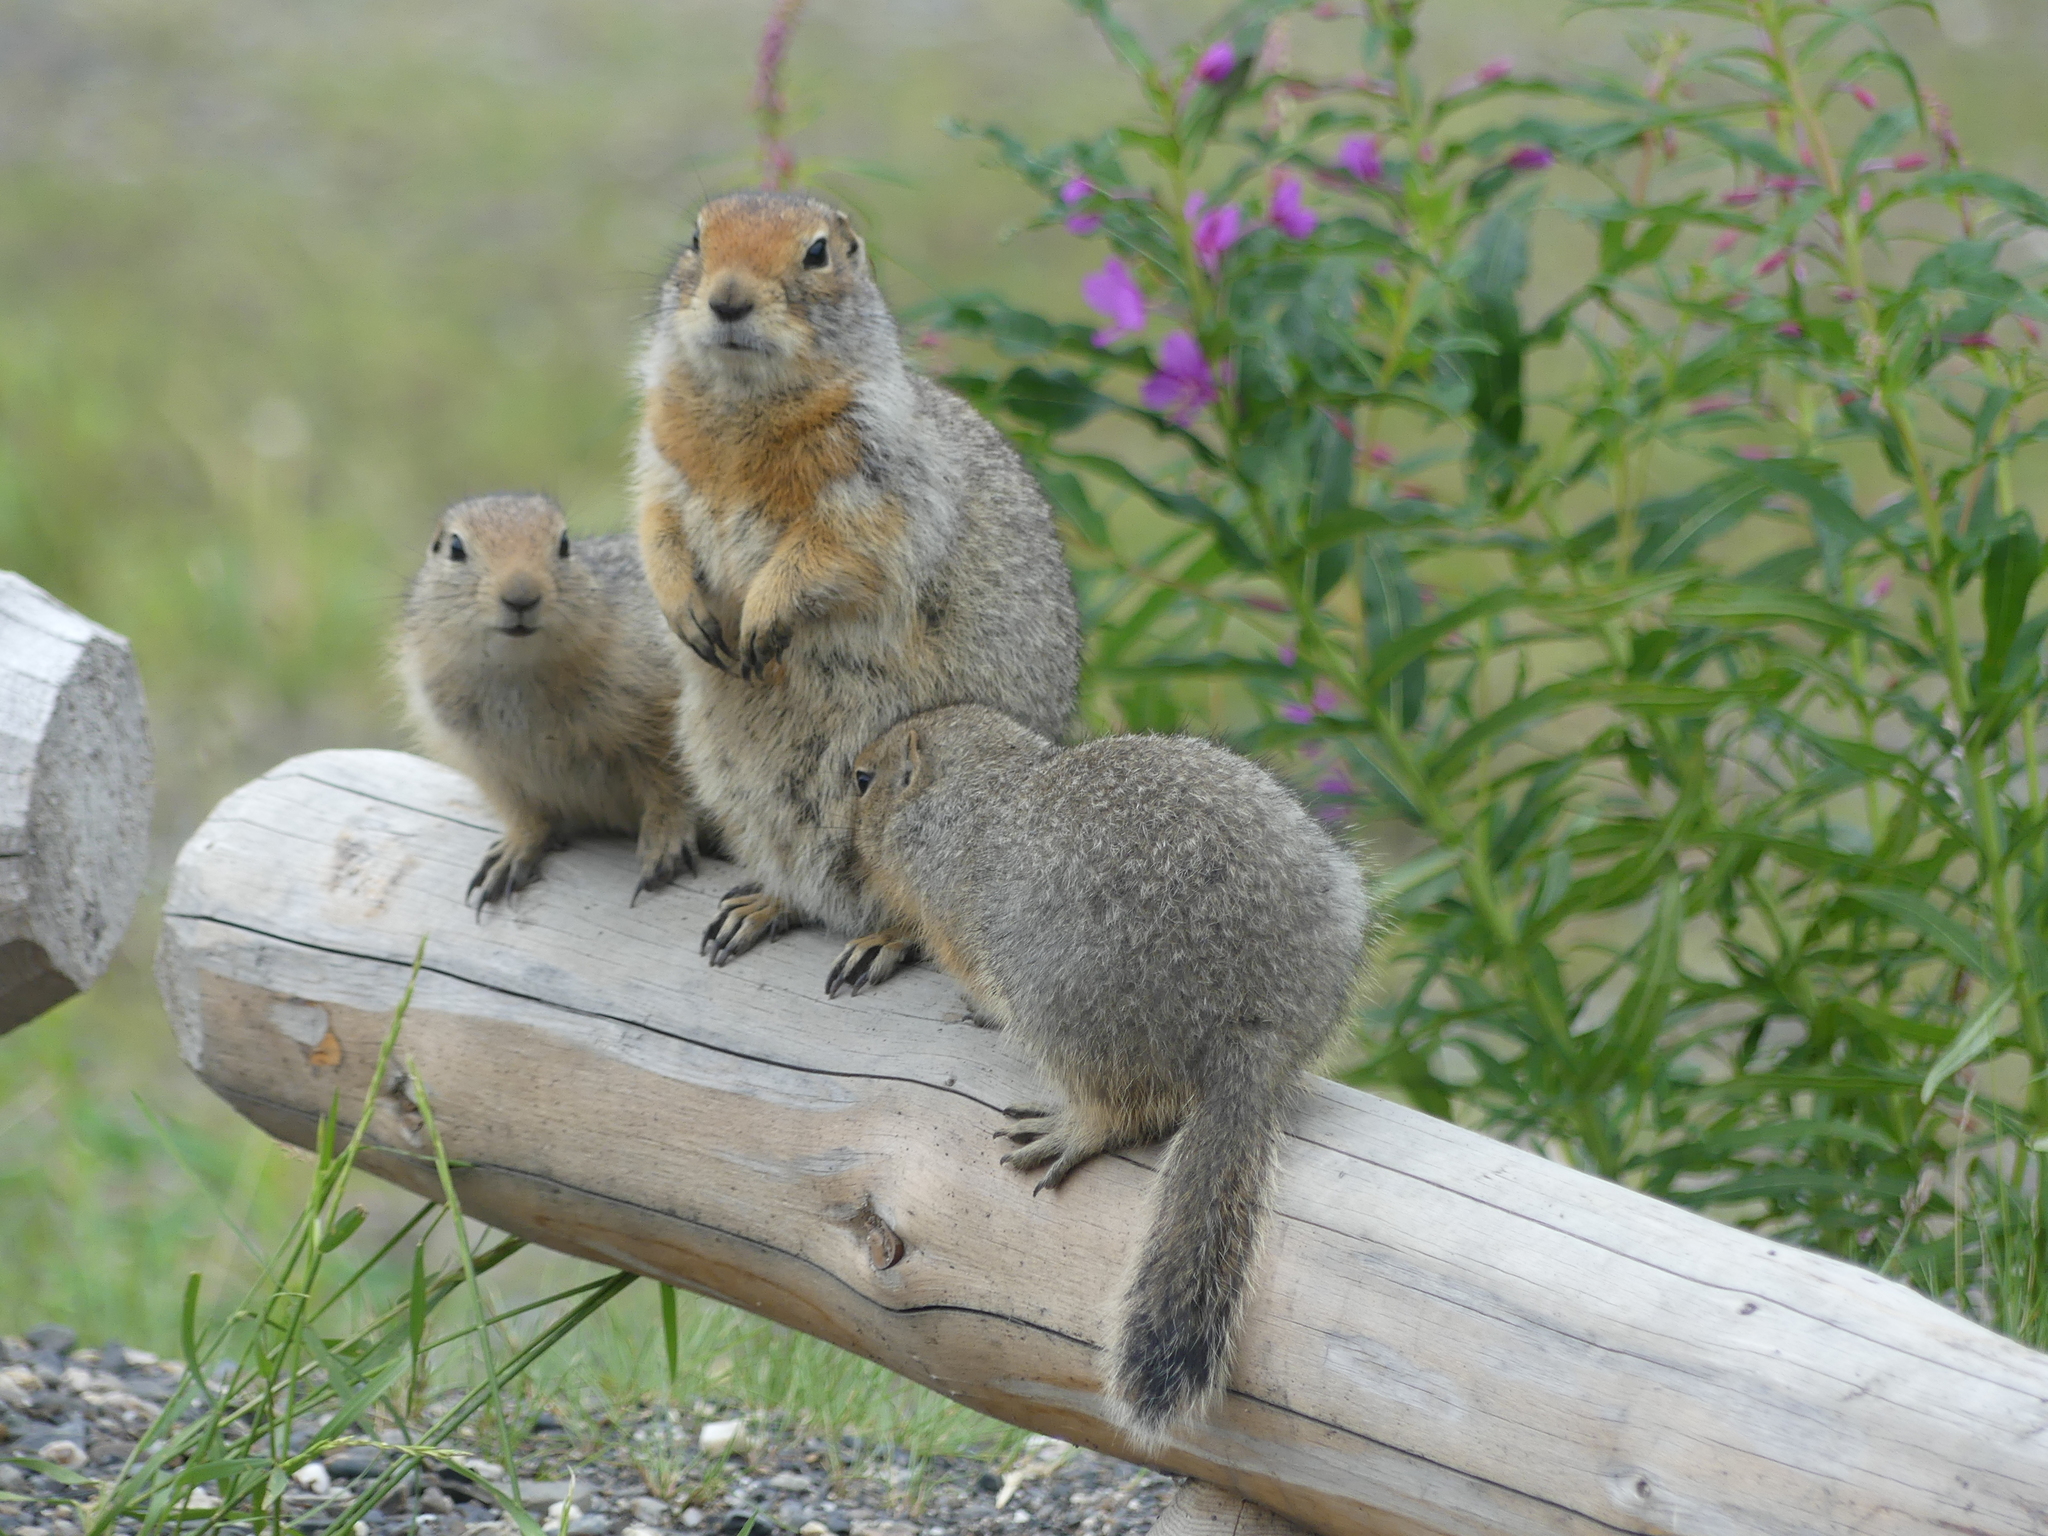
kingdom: Animalia
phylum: Chordata
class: Mammalia
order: Rodentia
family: Sciuridae
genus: Urocitellus
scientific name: Urocitellus parryii
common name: Arctic ground squirrel
